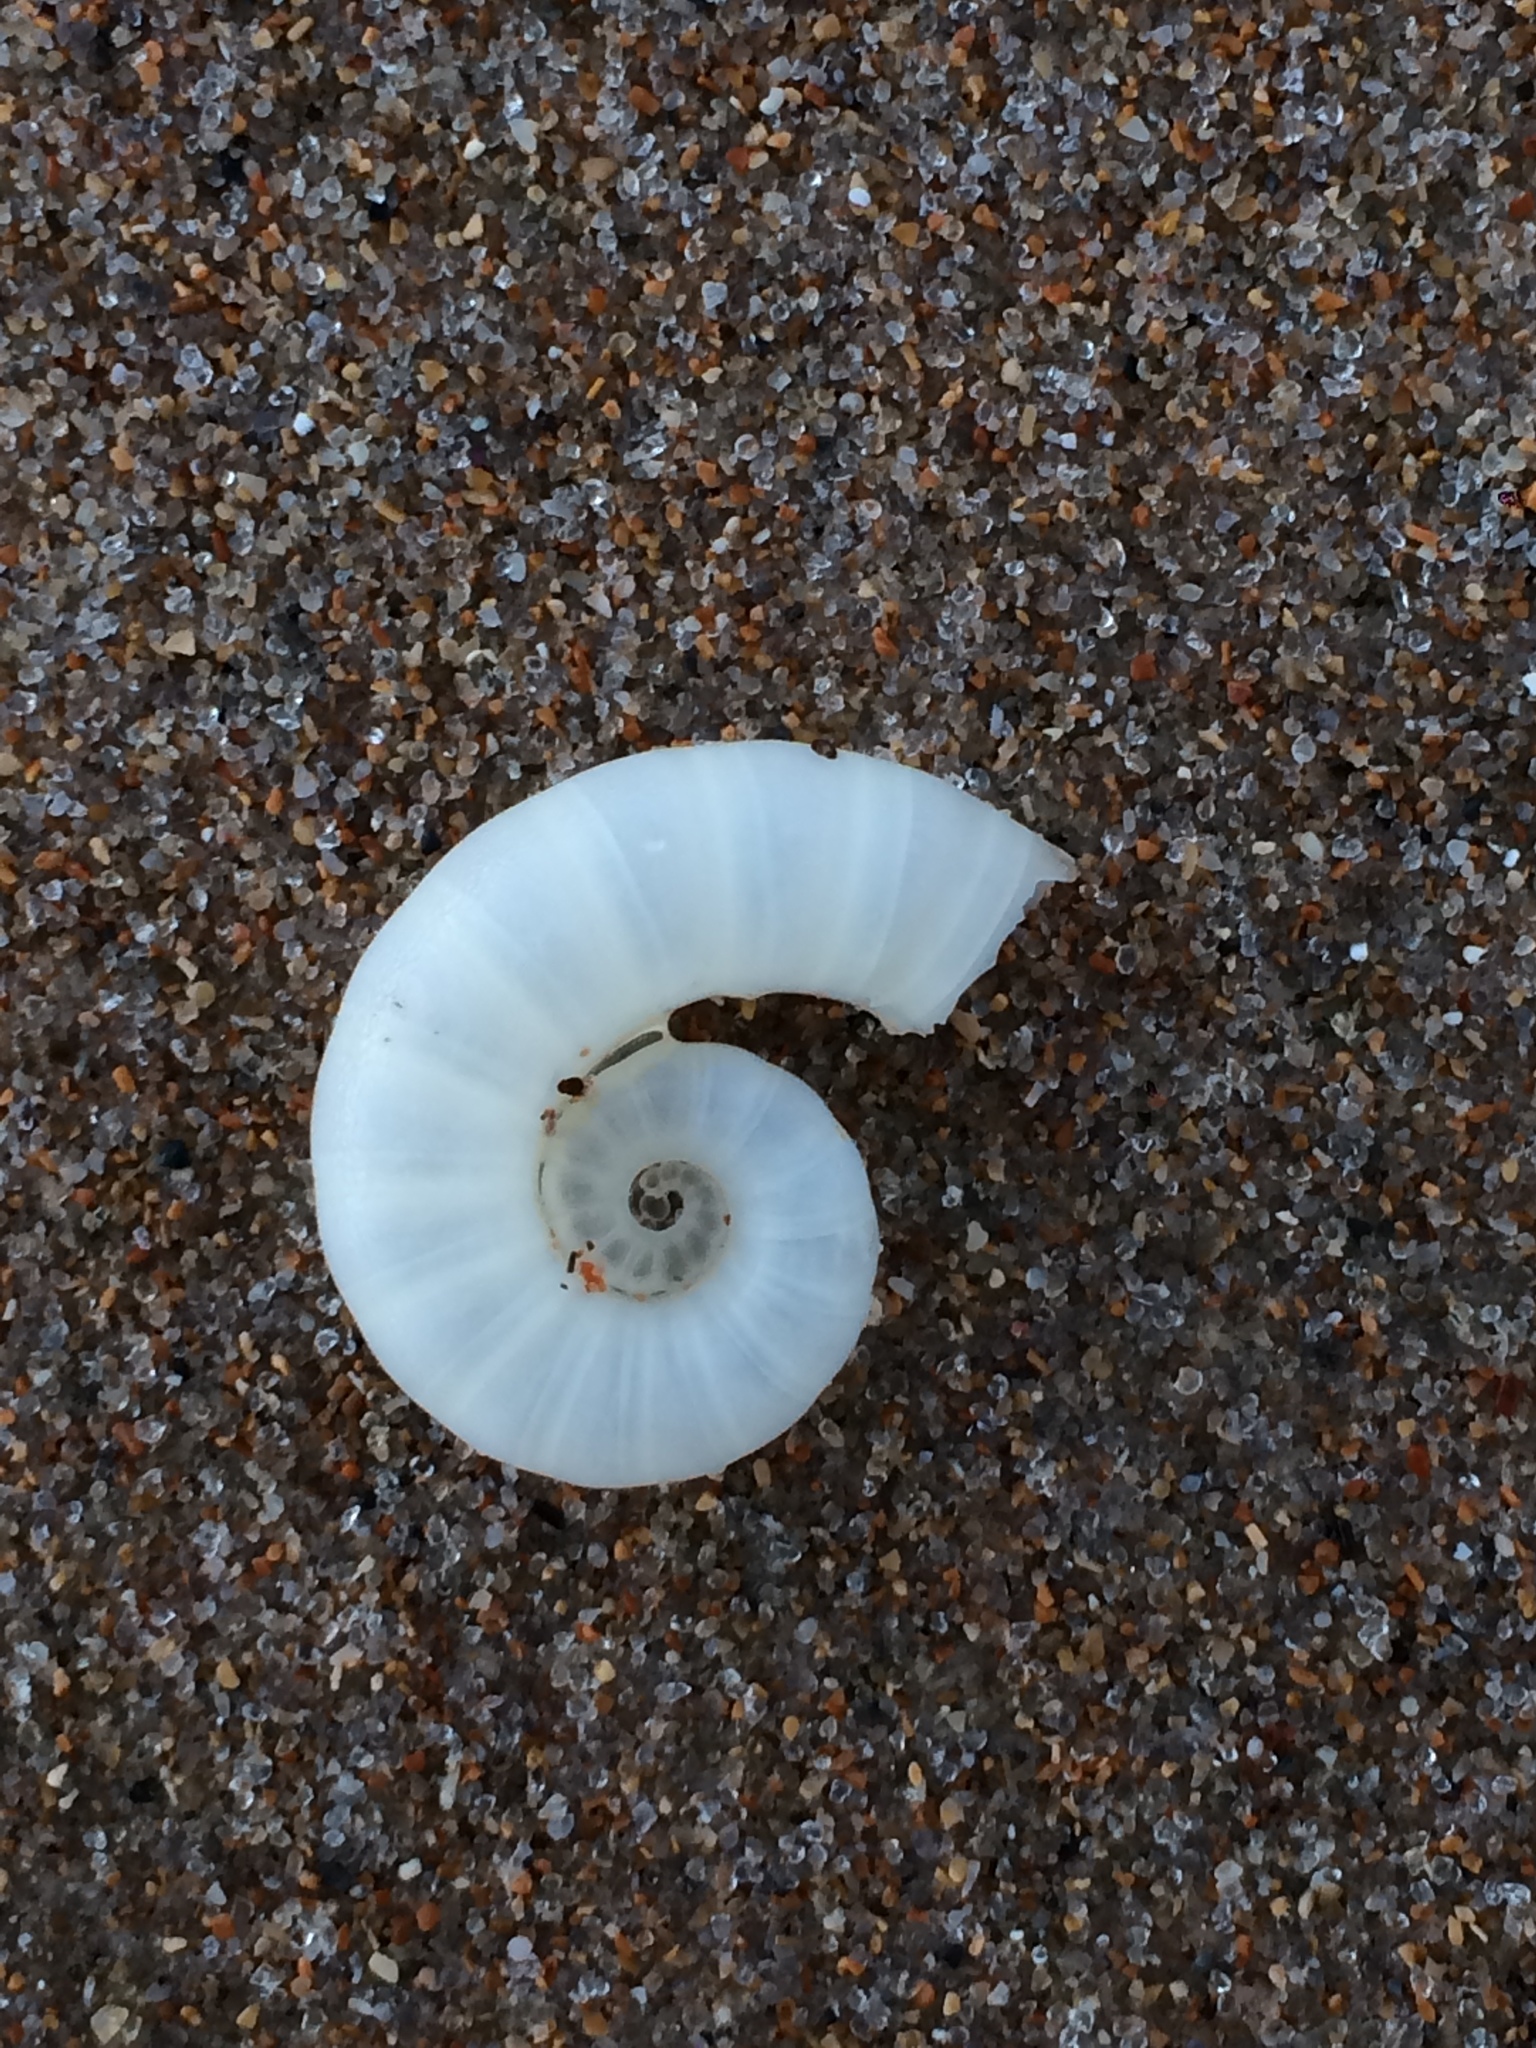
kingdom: Animalia
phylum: Mollusca
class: Cephalopoda
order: Spirulida
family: Spirulidae
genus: Spirula
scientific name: Spirula spirula
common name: Ram's horn squid
